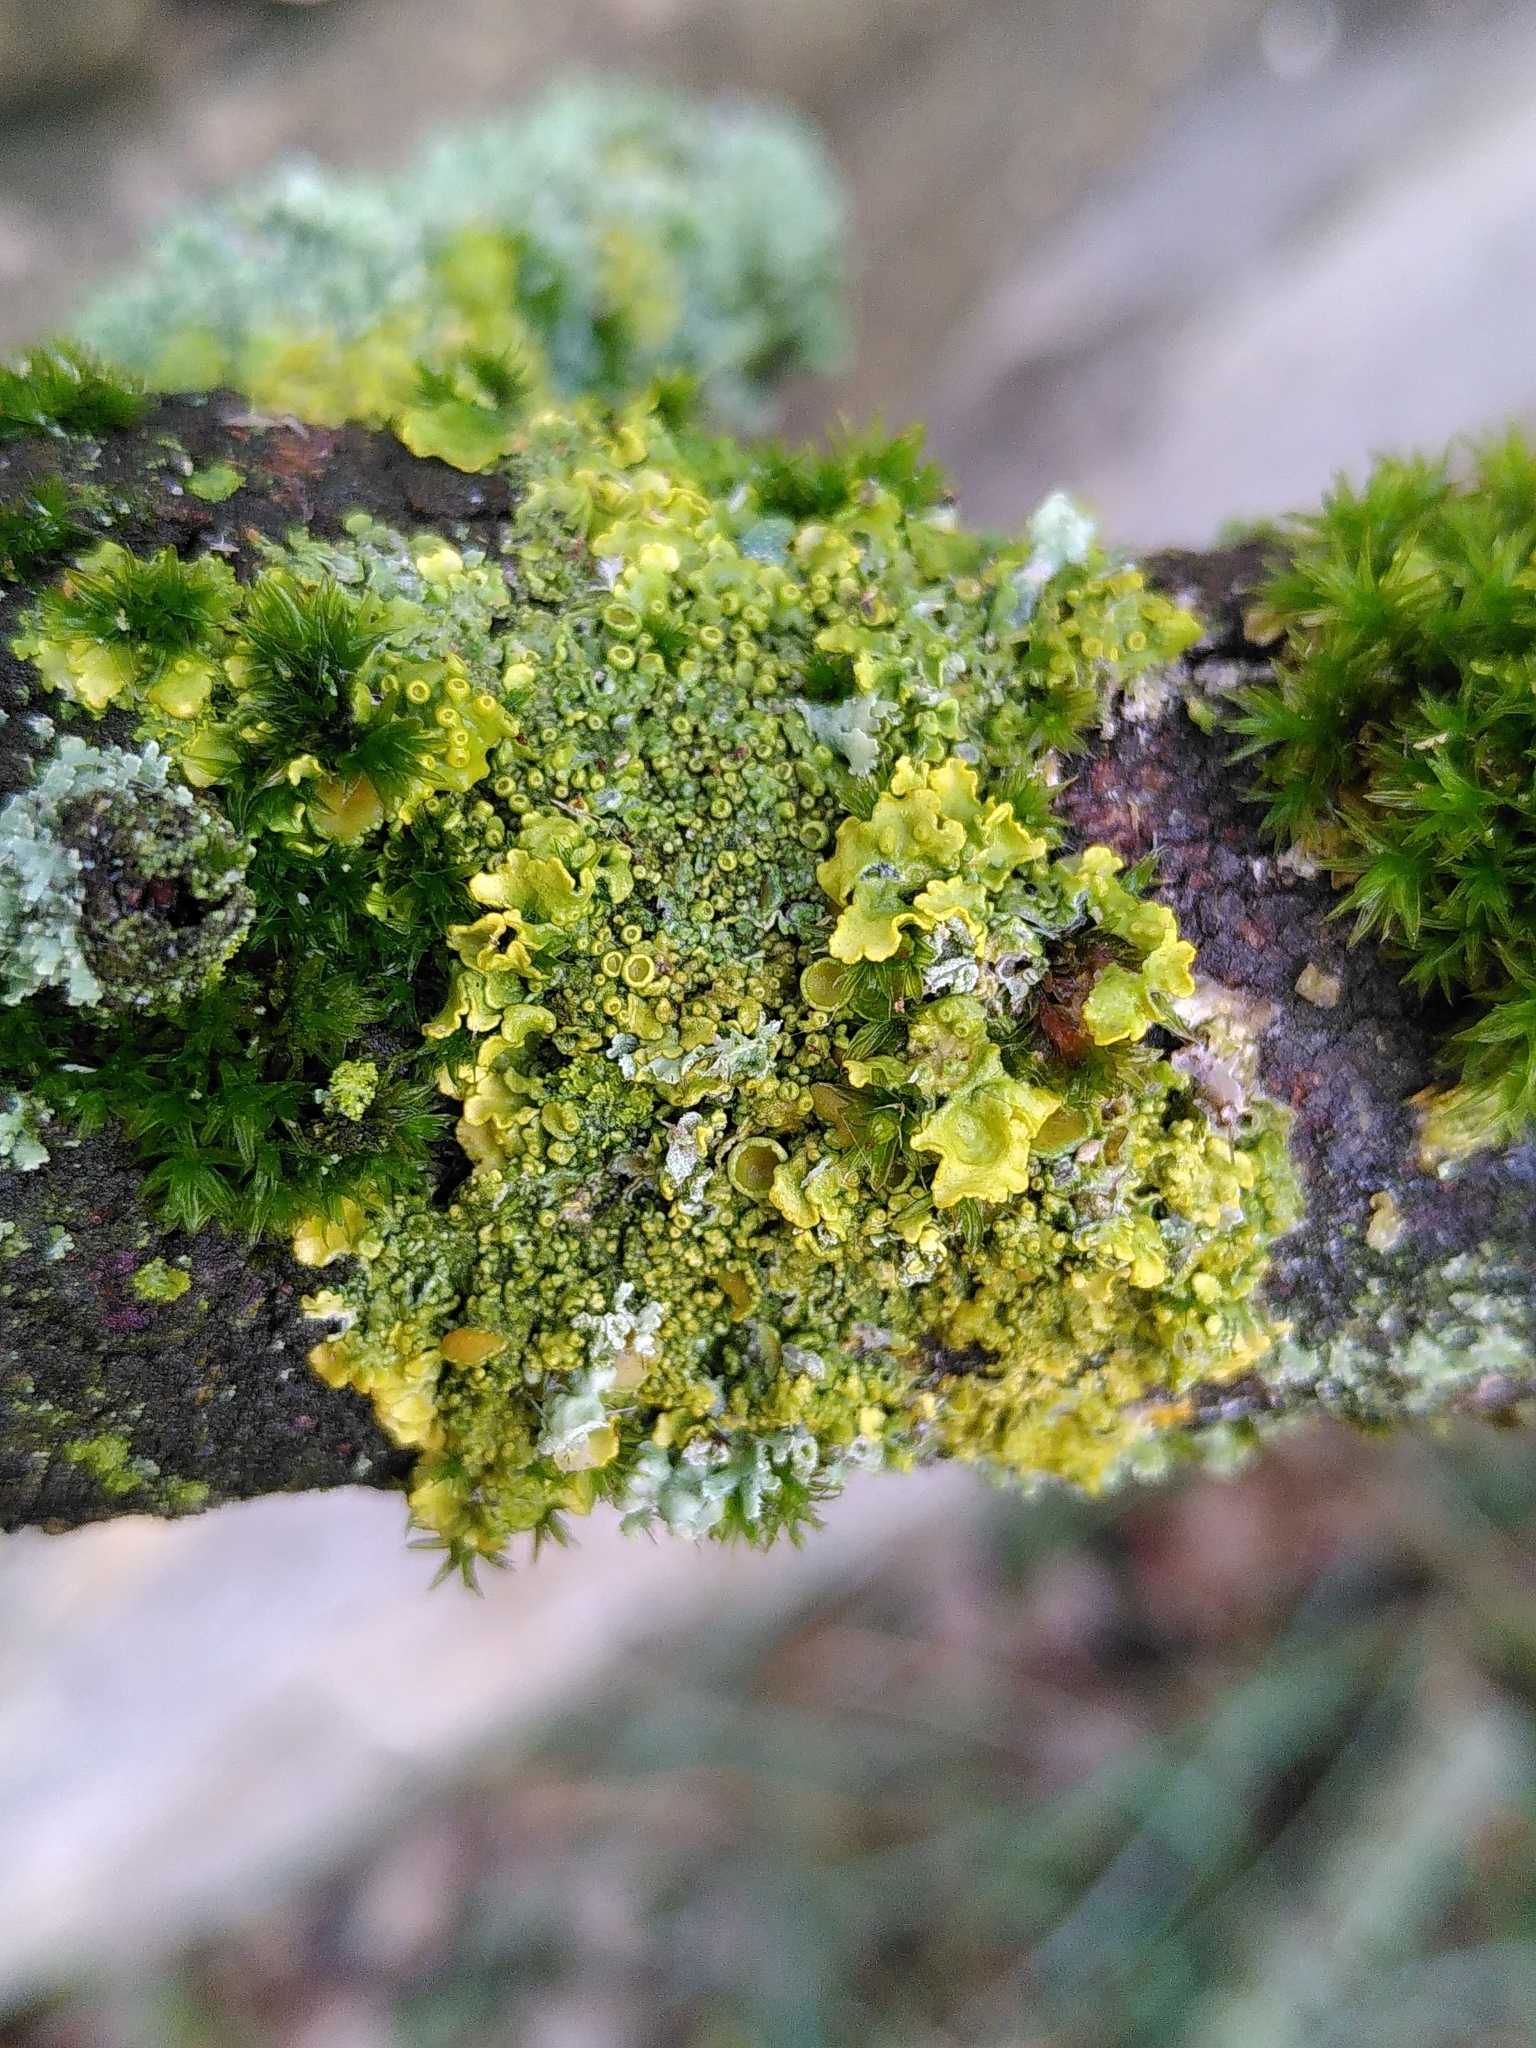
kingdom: Fungi
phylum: Ascomycota
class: Lecanoromycetes
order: Teloschistales
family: Teloschistaceae
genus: Xanthoria
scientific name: Xanthoria parietina
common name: Common orange lichen
